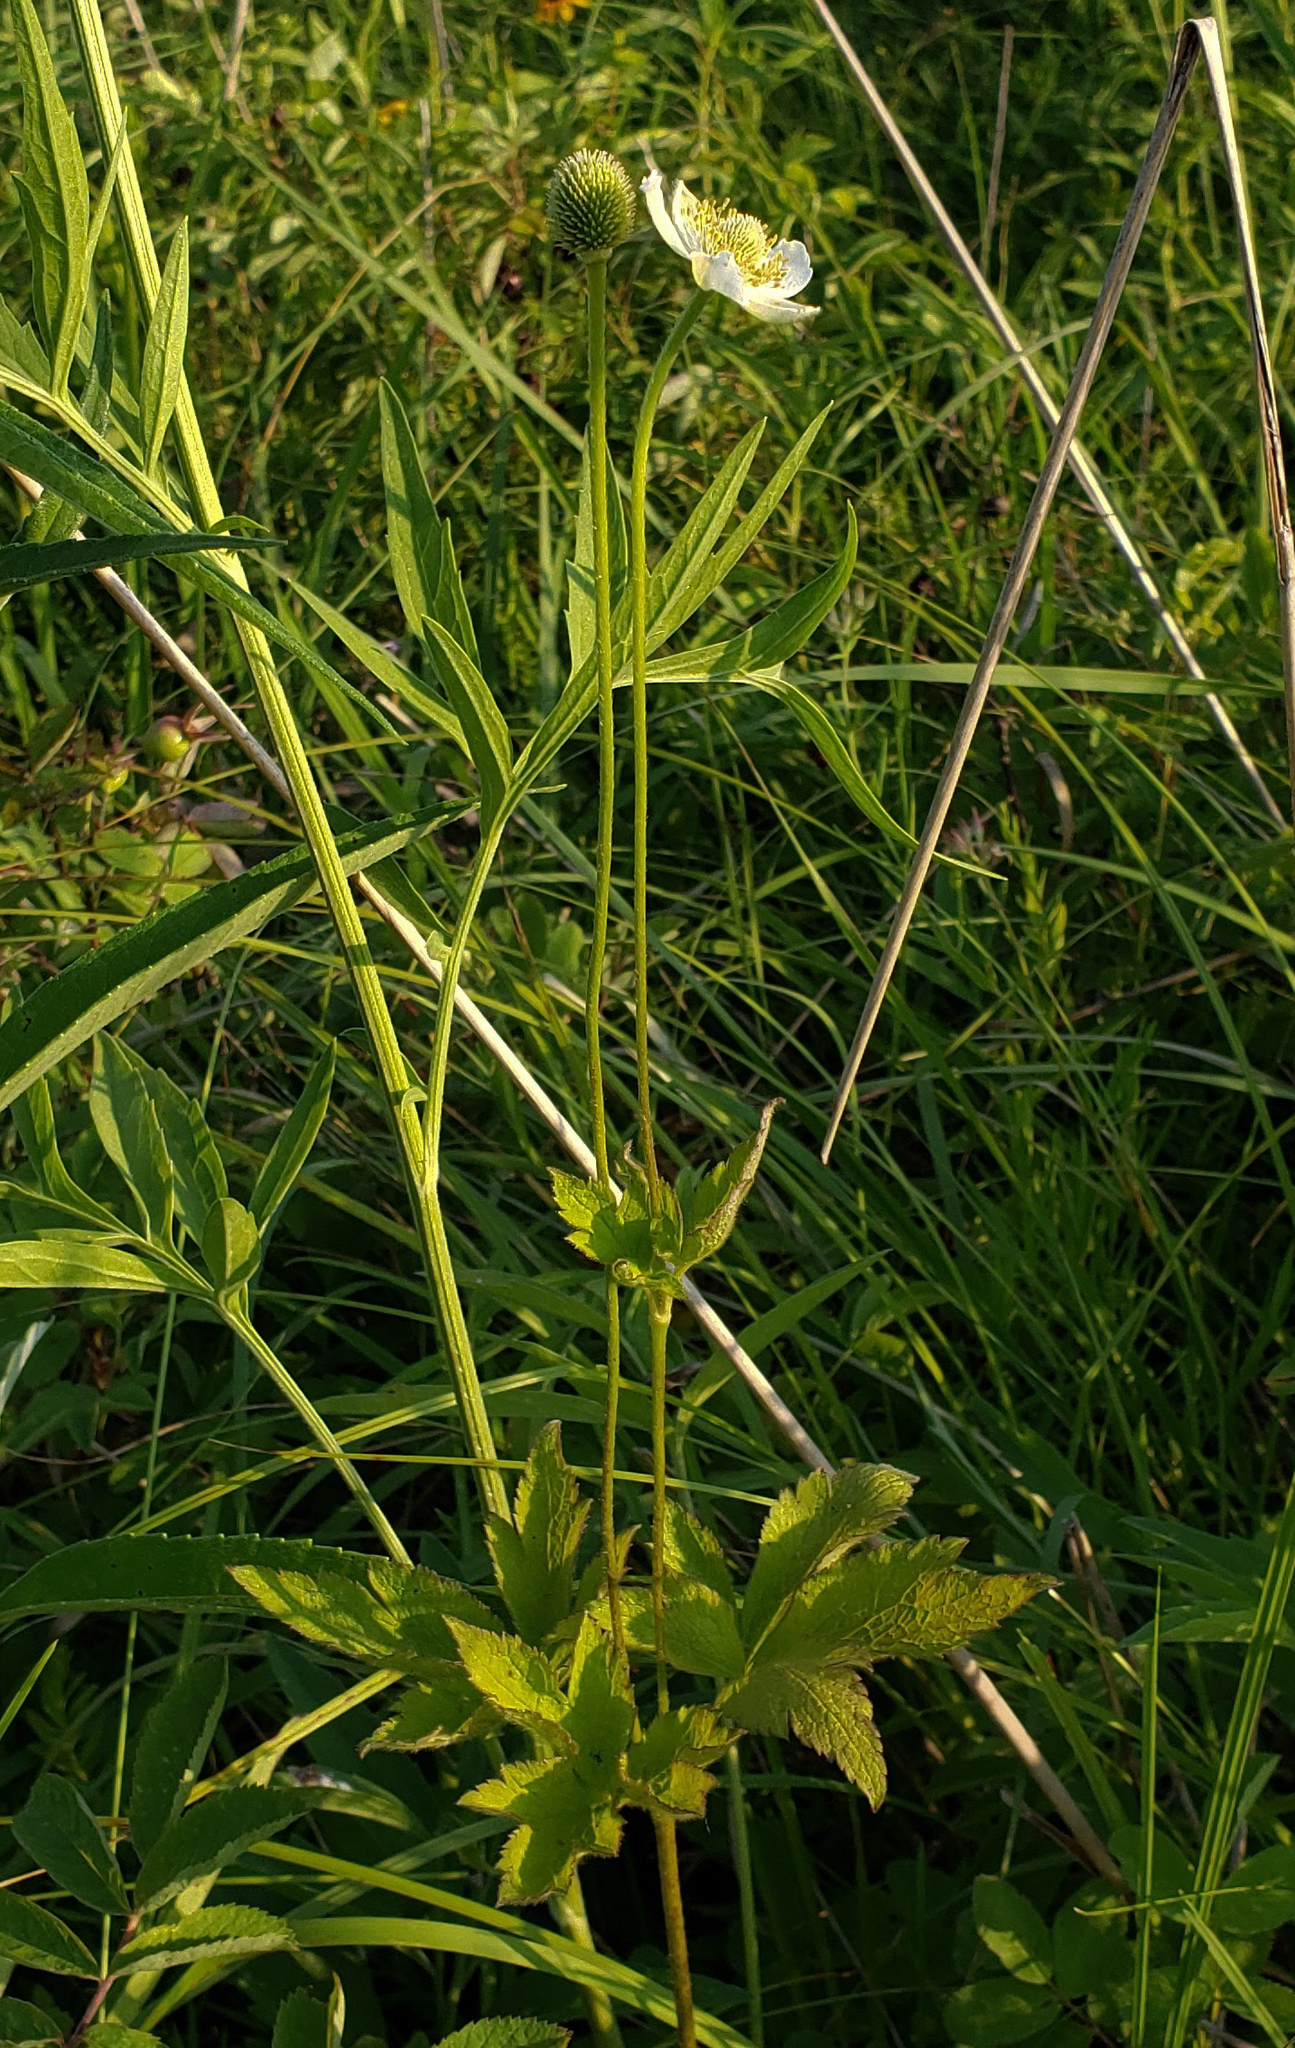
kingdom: Plantae
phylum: Tracheophyta
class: Magnoliopsida
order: Ranunculales
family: Ranunculaceae
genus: Anemone
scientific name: Anemone virginiana
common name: Tall anemone
